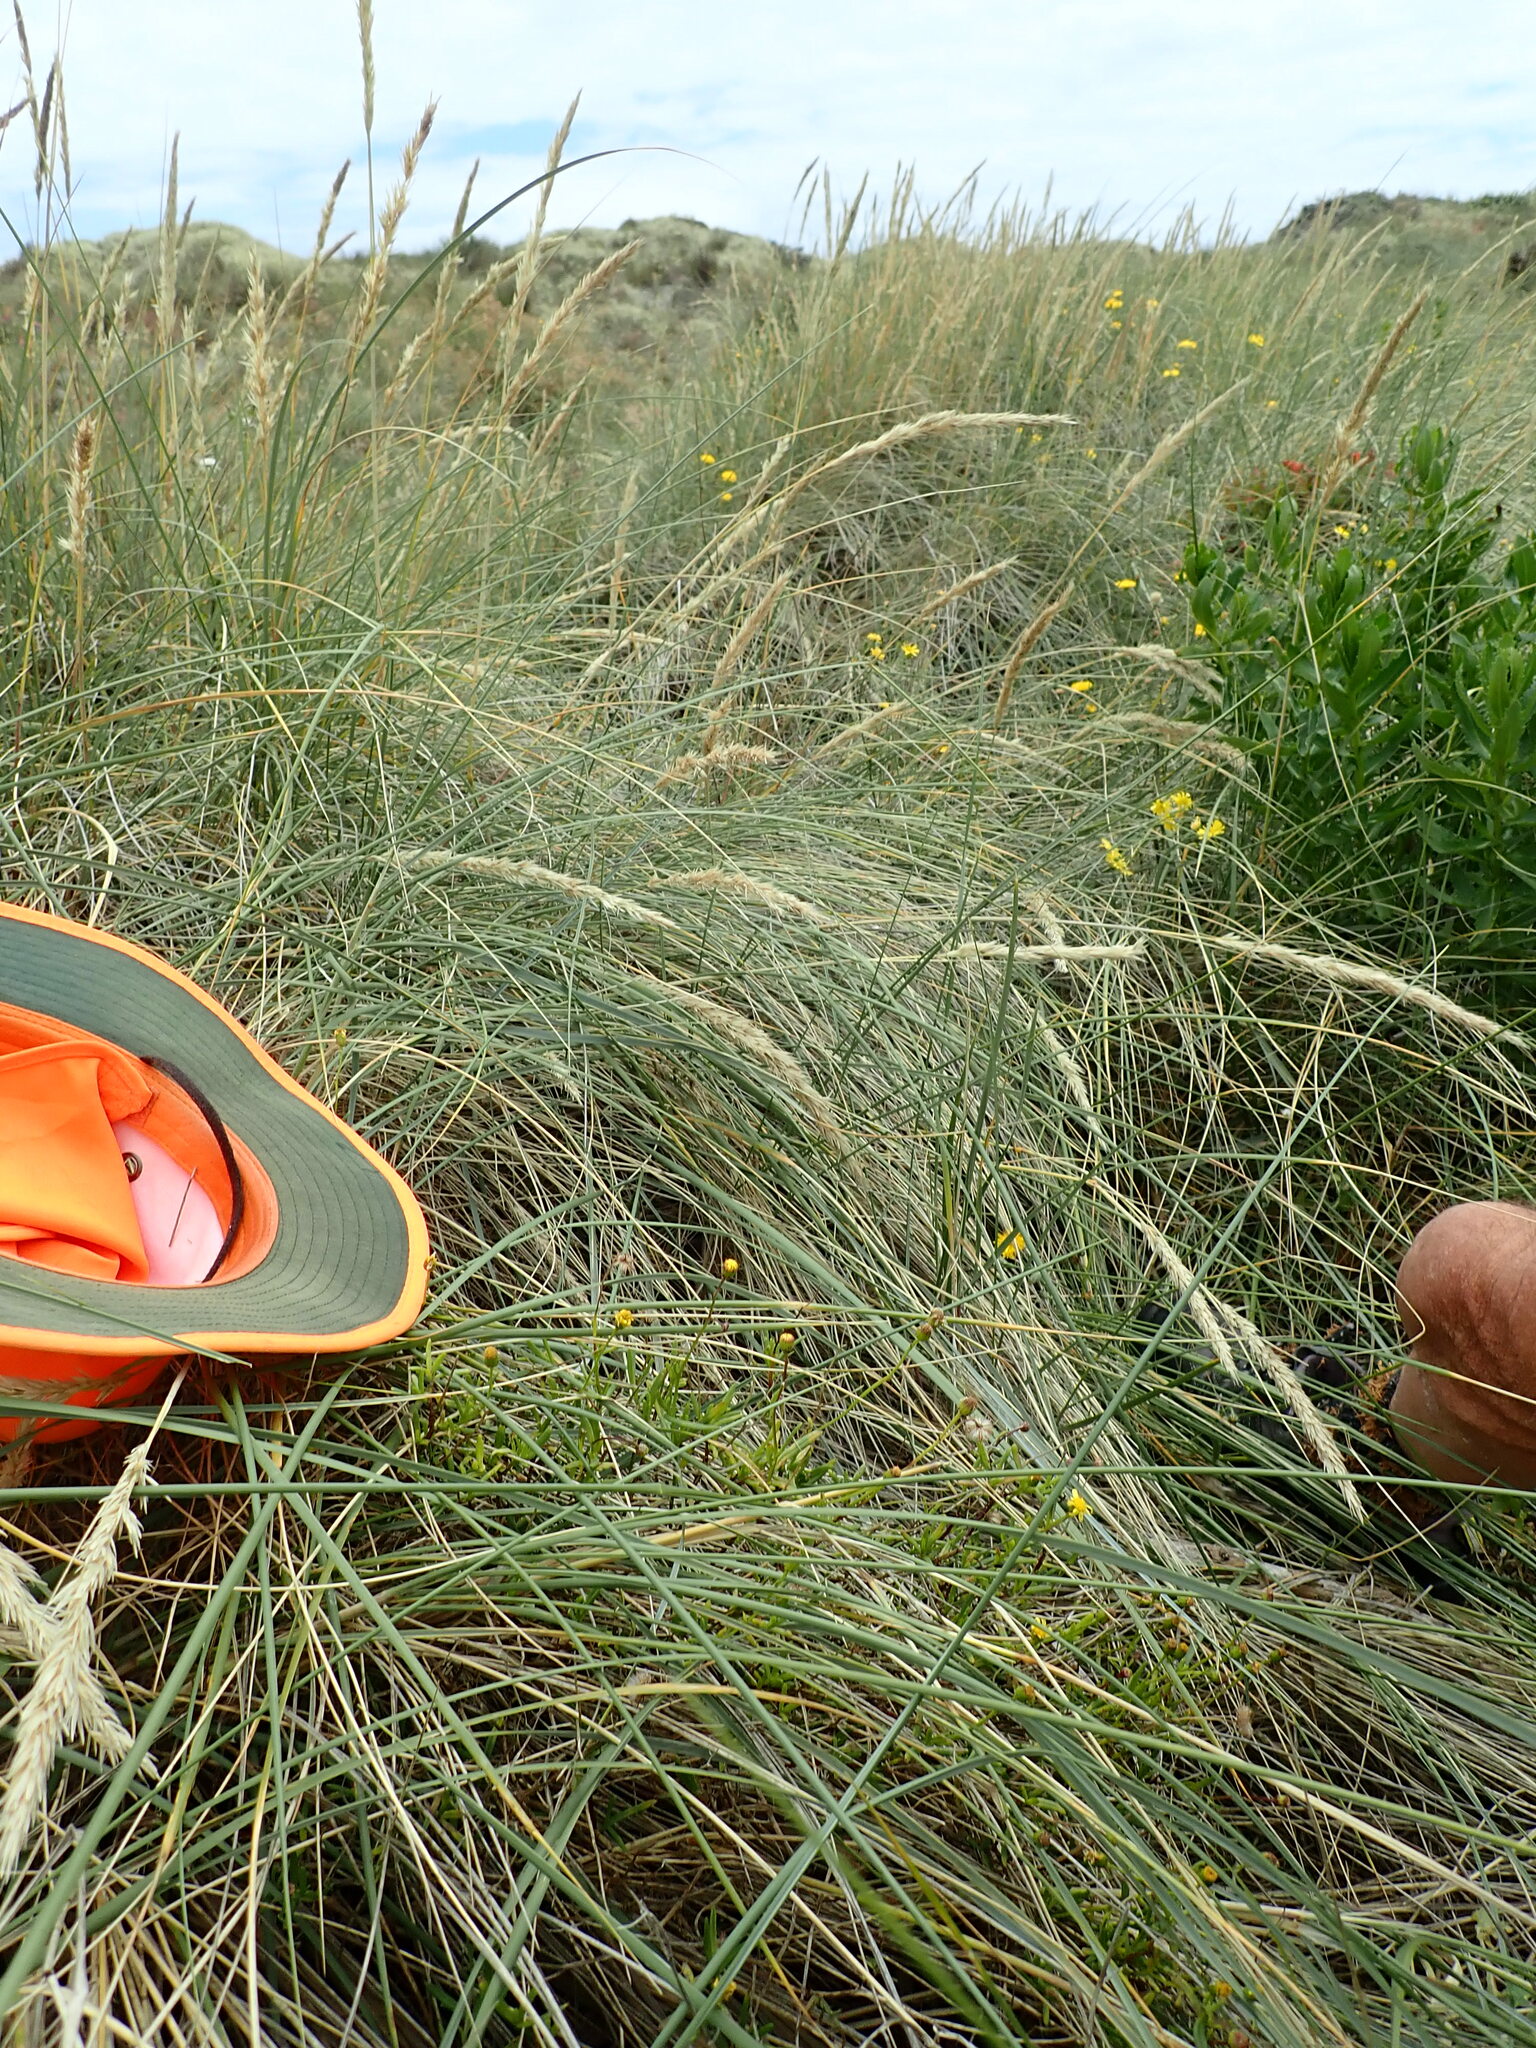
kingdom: Plantae
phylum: Tracheophyta
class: Magnoliopsida
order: Asterales
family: Asteraceae
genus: Senecio
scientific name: Senecio skirrhodon
